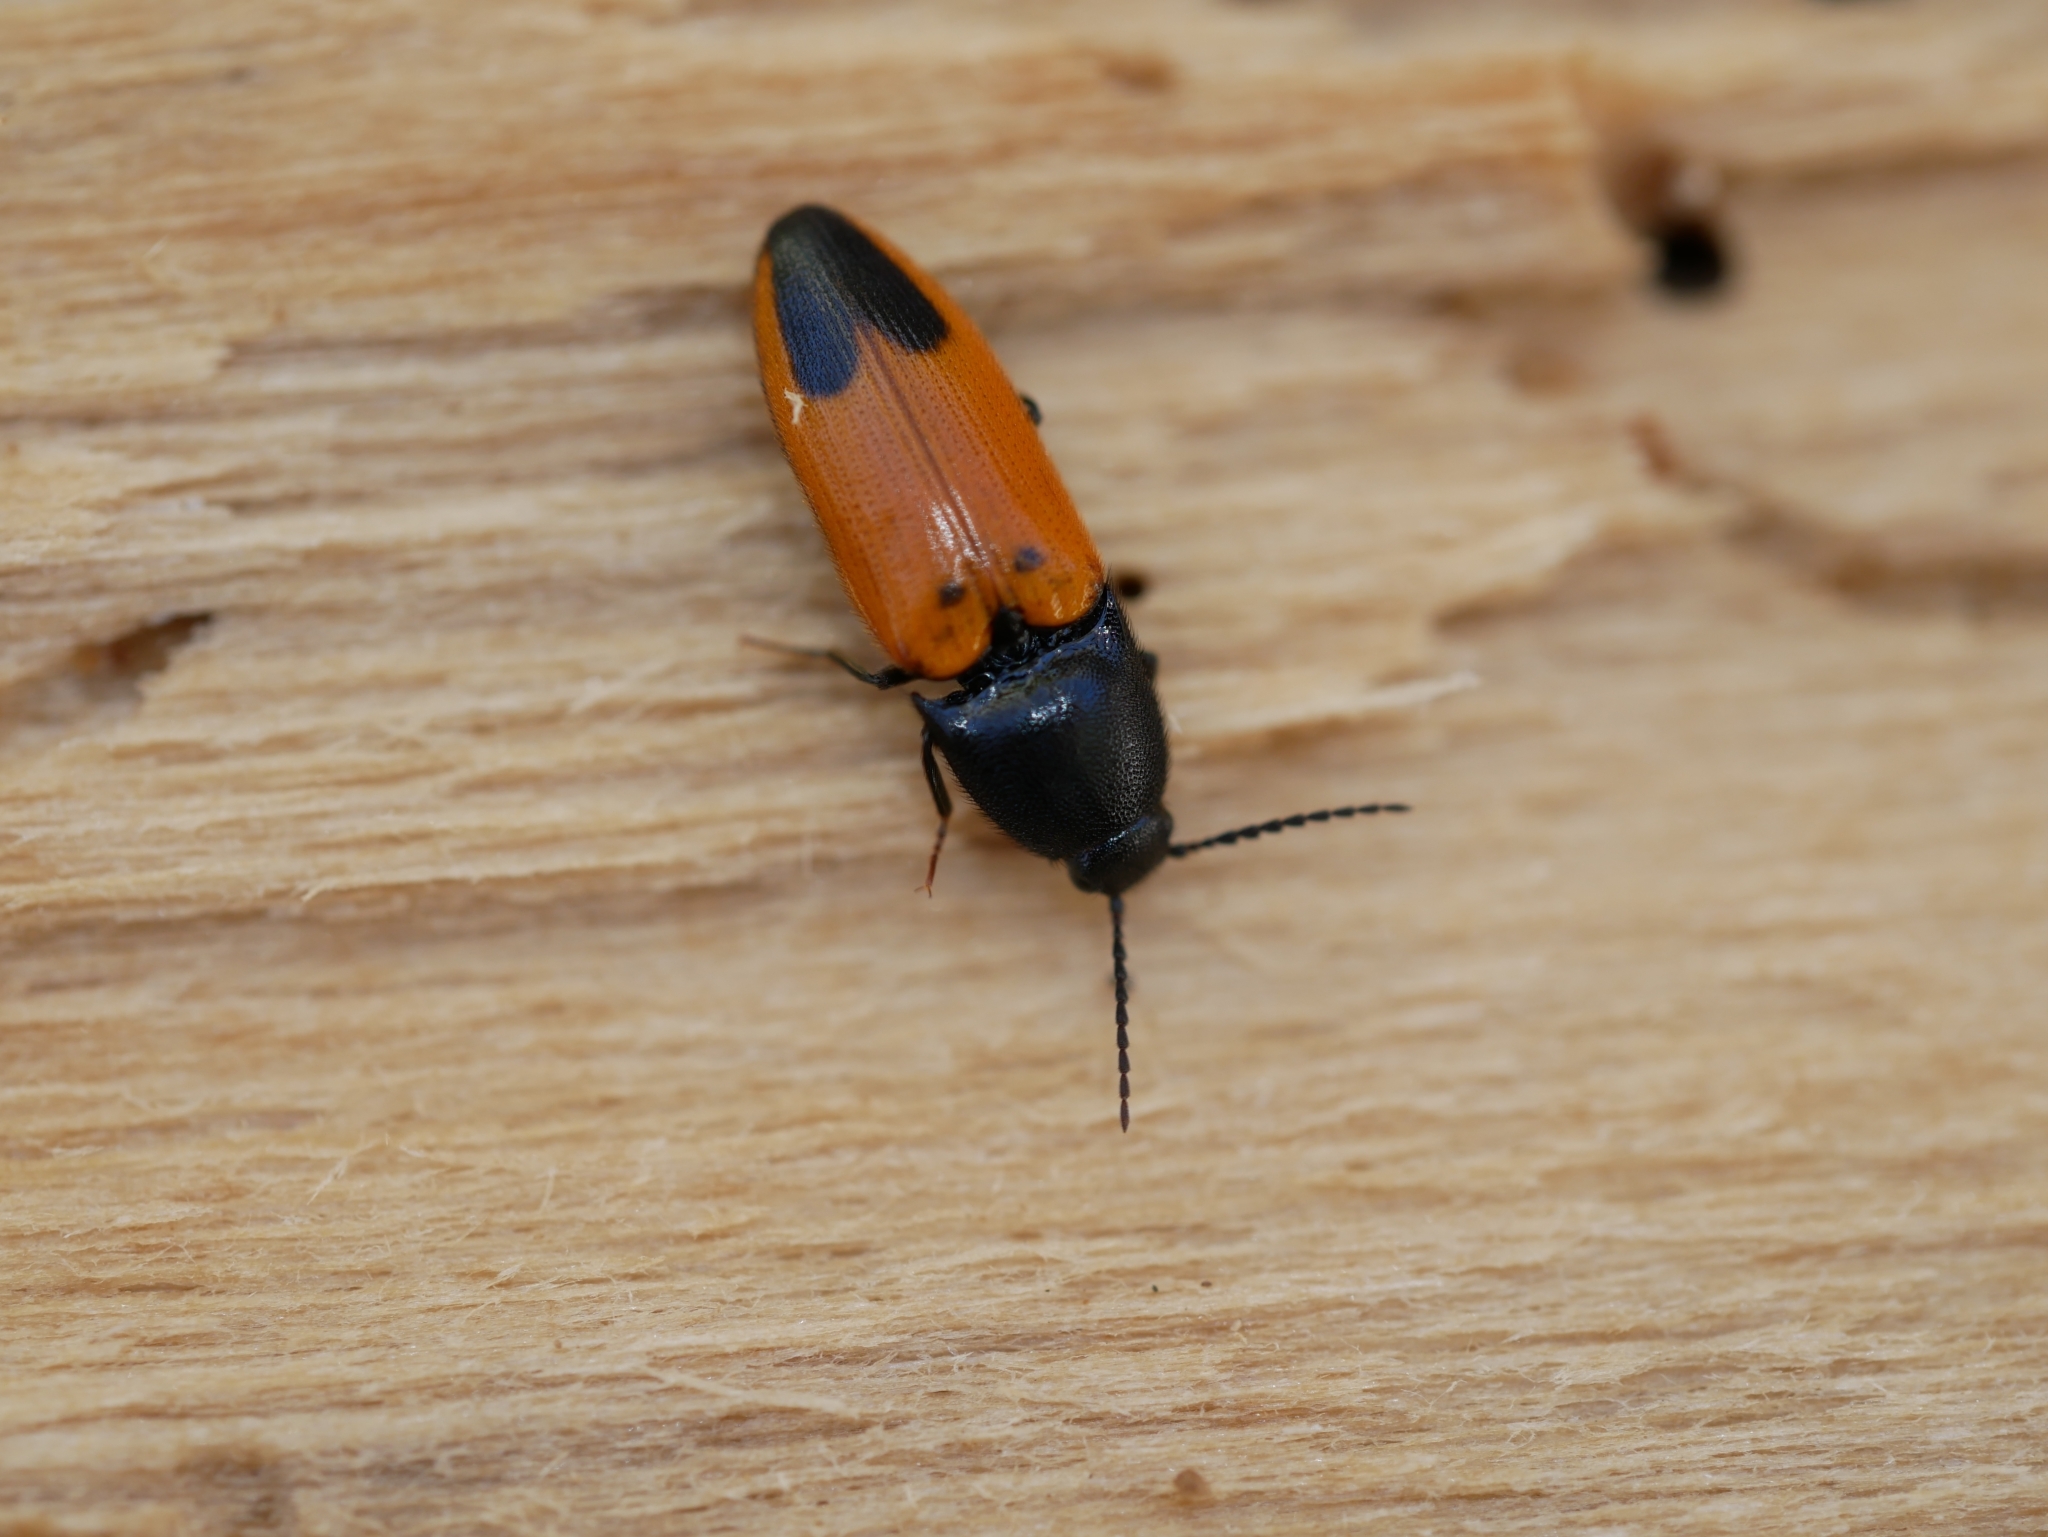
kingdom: Animalia
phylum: Arthropoda
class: Insecta
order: Coleoptera
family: Elateridae
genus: Ampedus
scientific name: Ampedus
